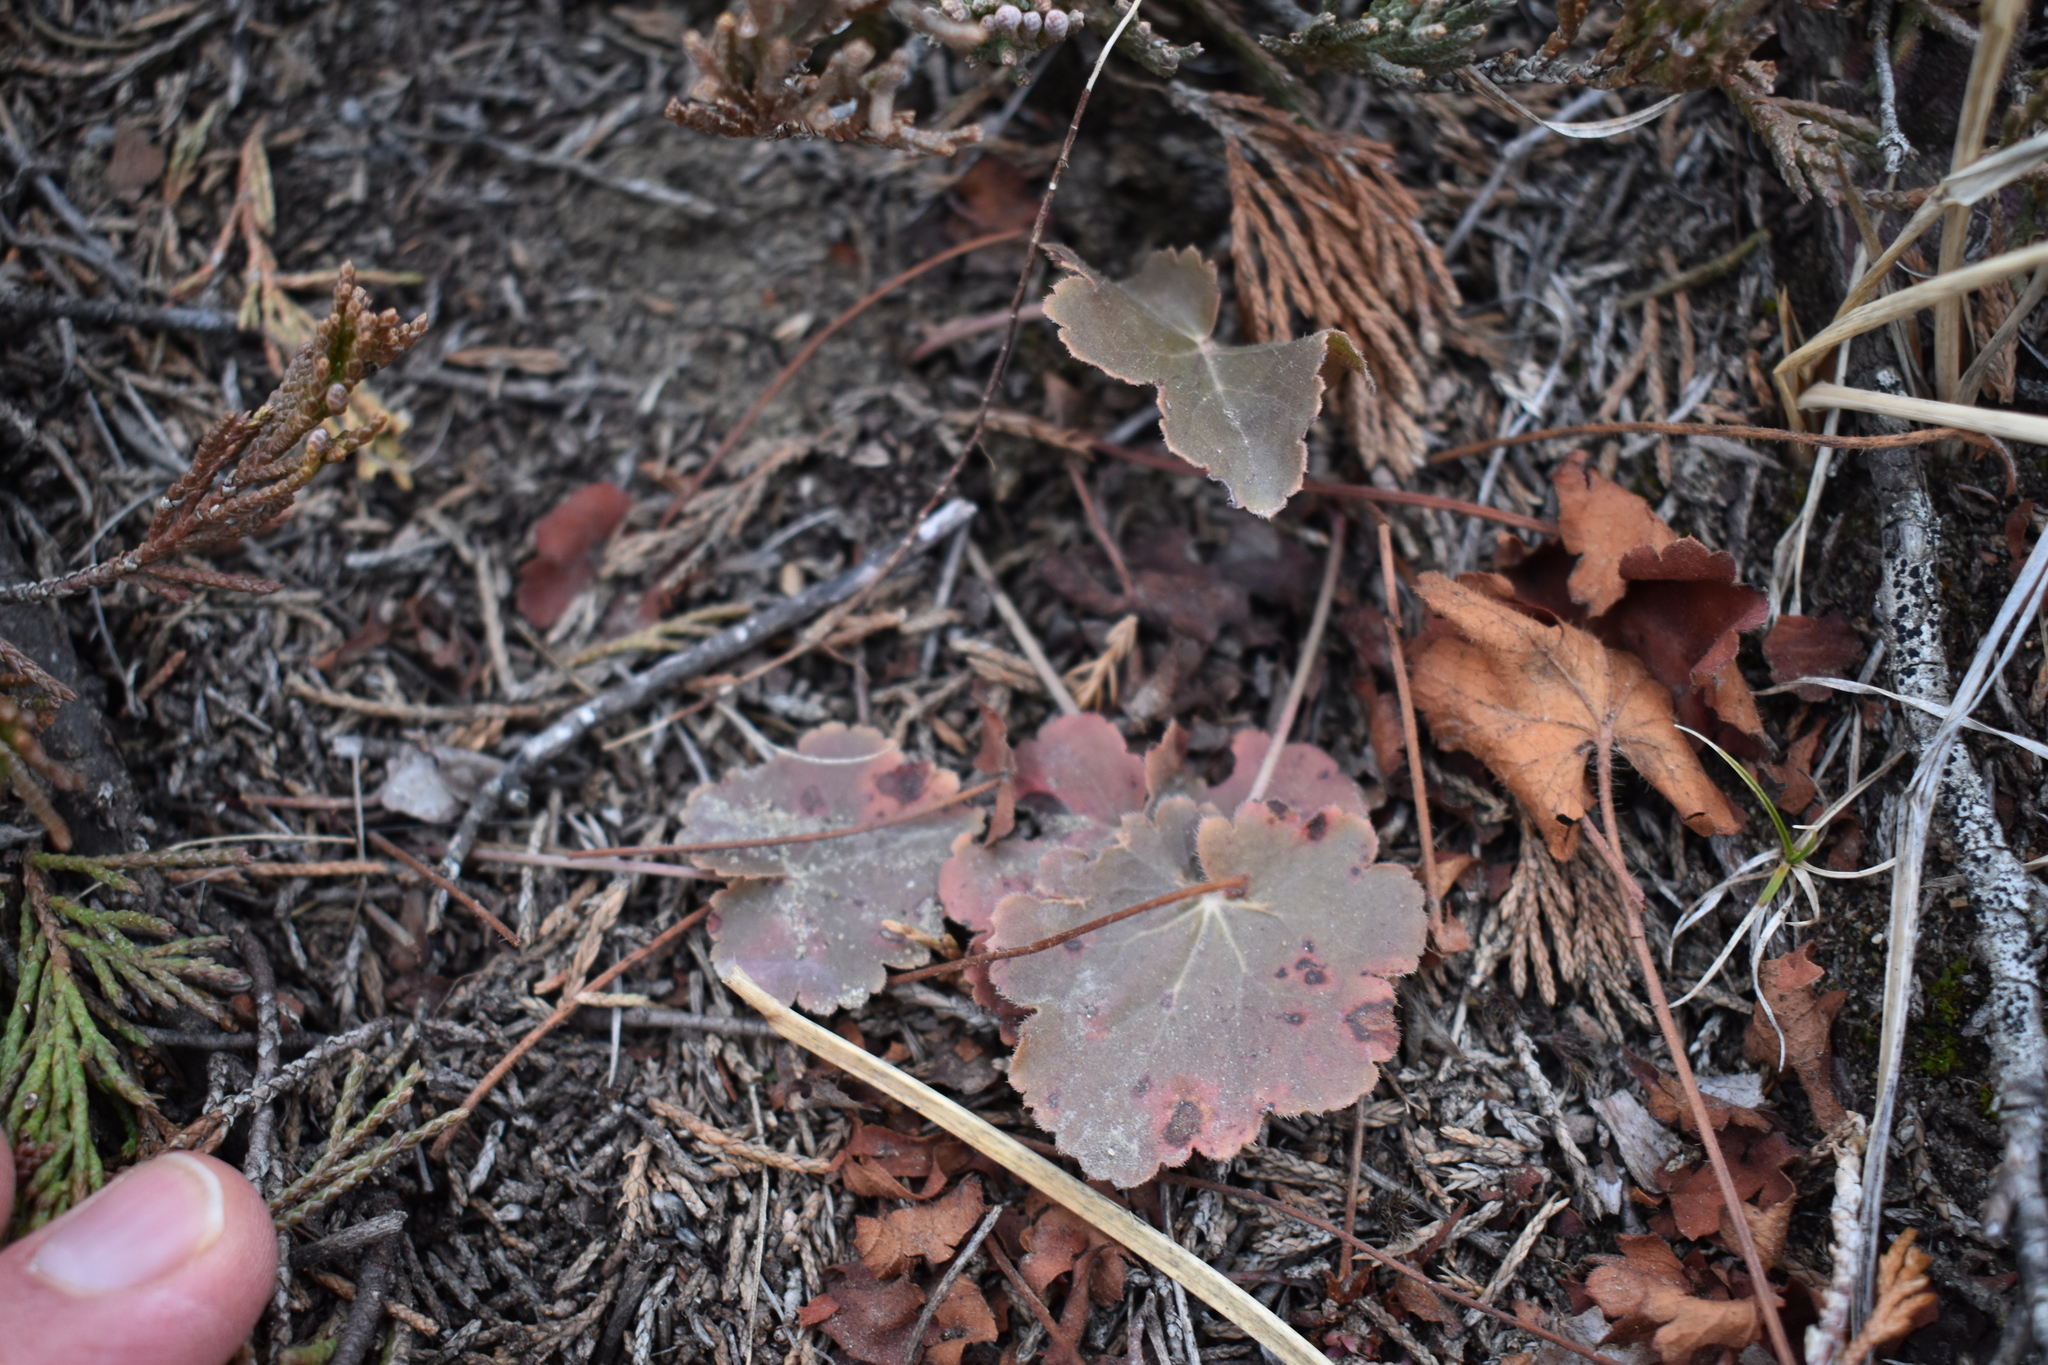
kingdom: Plantae
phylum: Tracheophyta
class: Magnoliopsida
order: Saxifragales
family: Saxifragaceae
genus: Heuchera
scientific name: Heuchera richardsonii
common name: Richardson's alumroot
